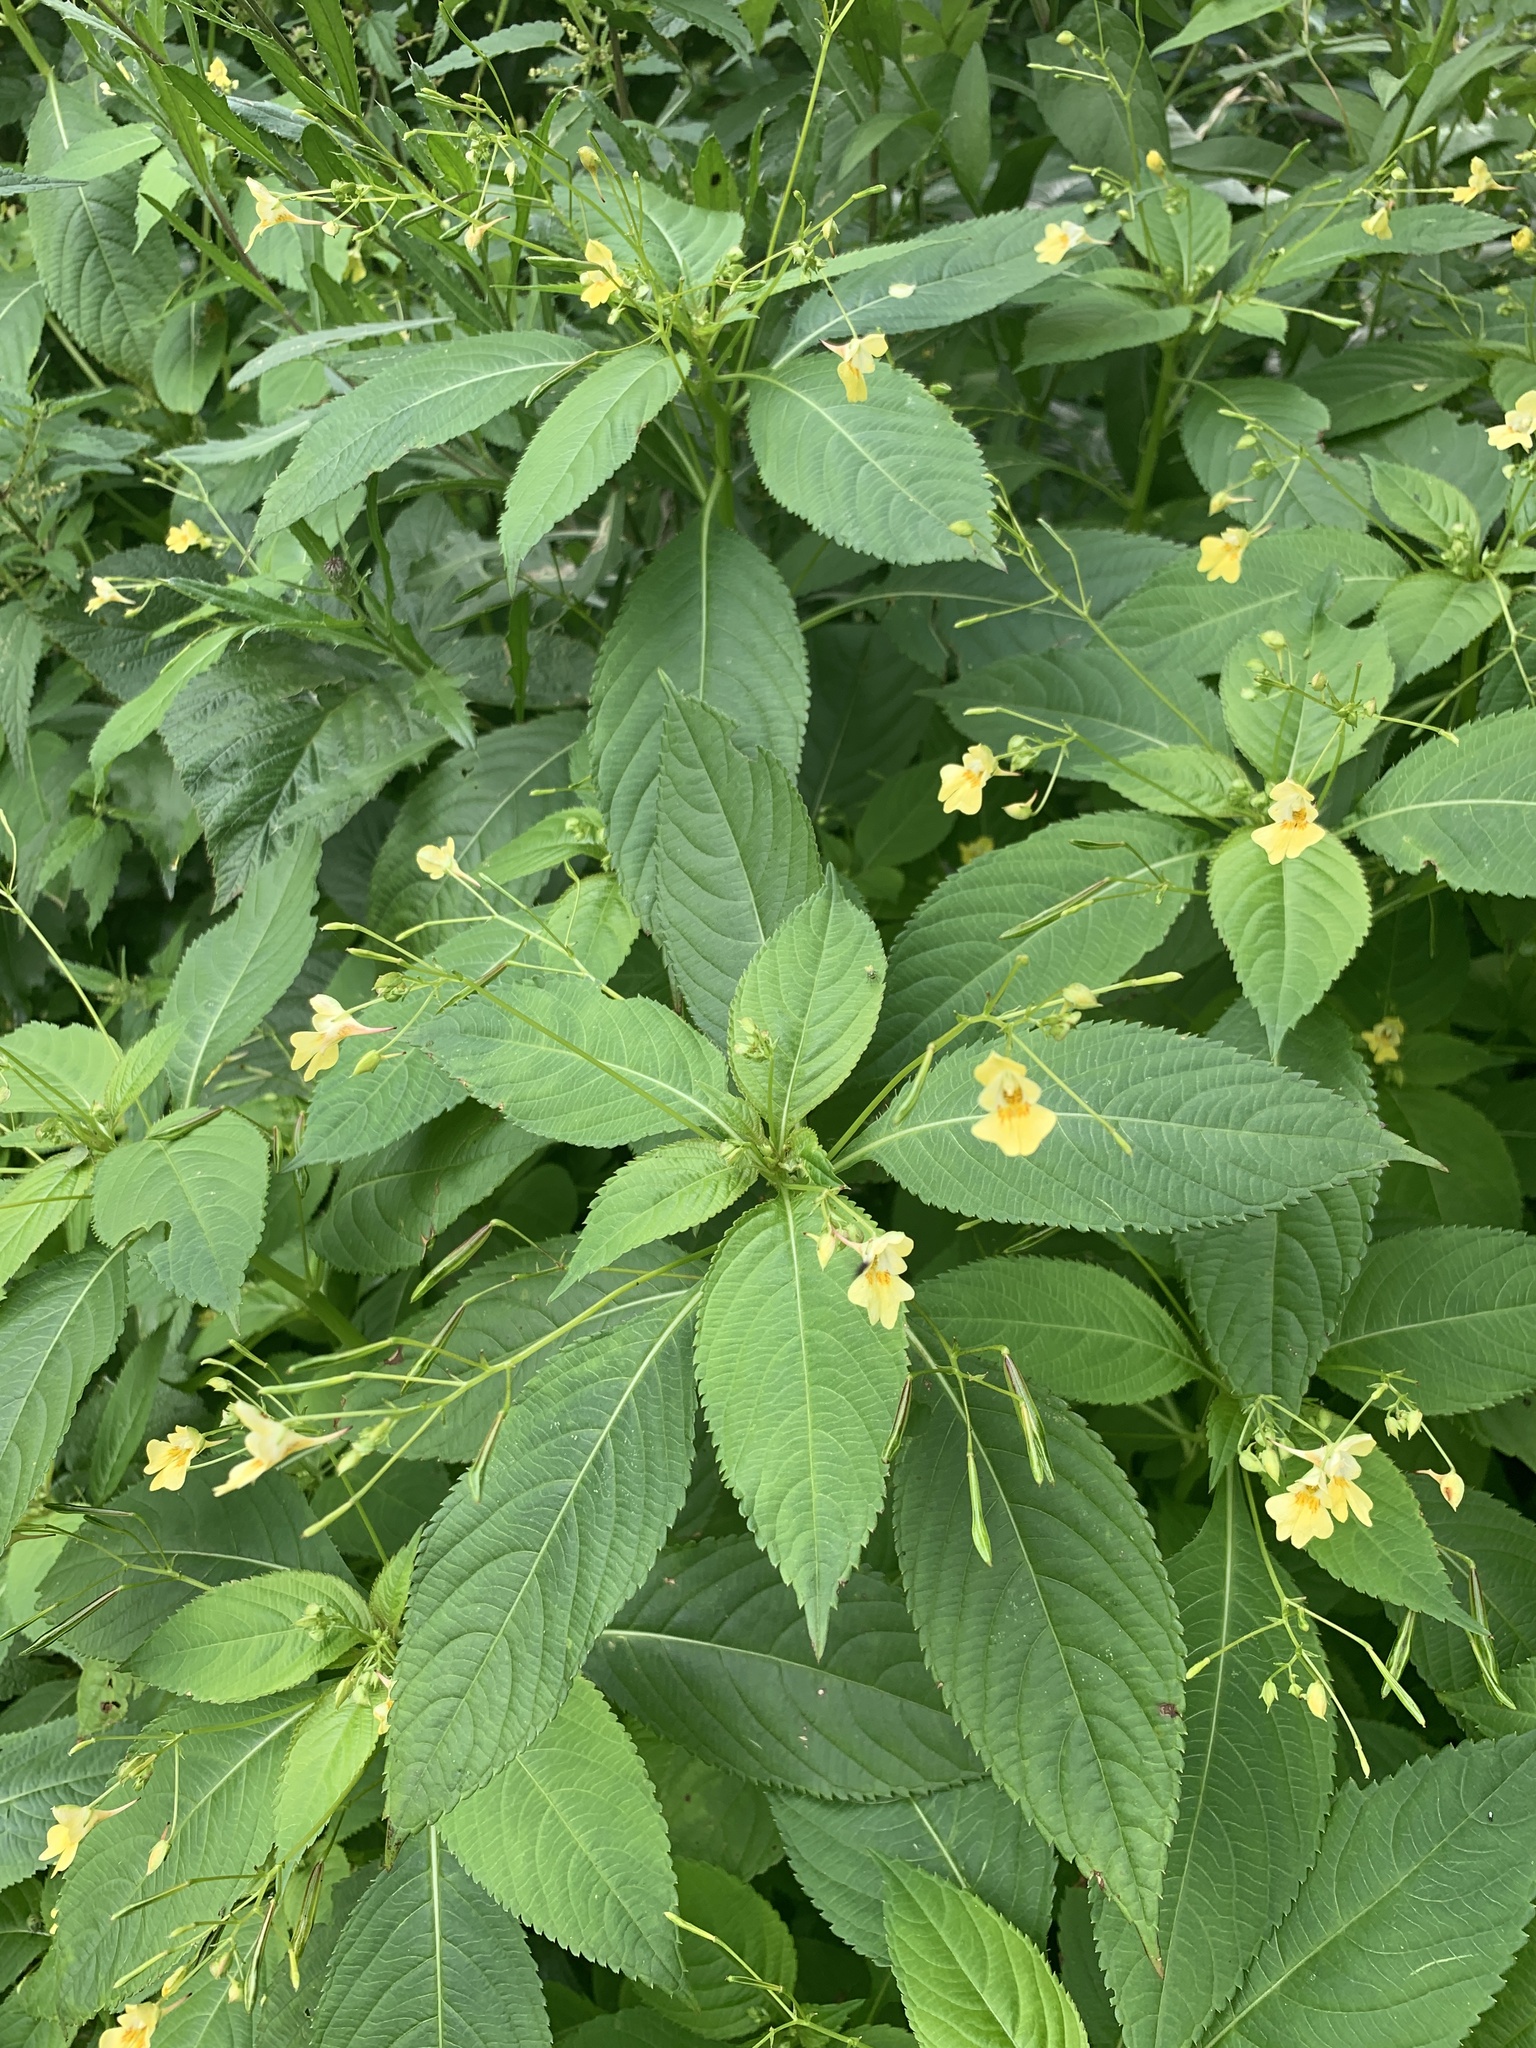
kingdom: Plantae
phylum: Tracheophyta
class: Magnoliopsida
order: Ericales
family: Balsaminaceae
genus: Impatiens
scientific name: Impatiens parviflora
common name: Small balsam
